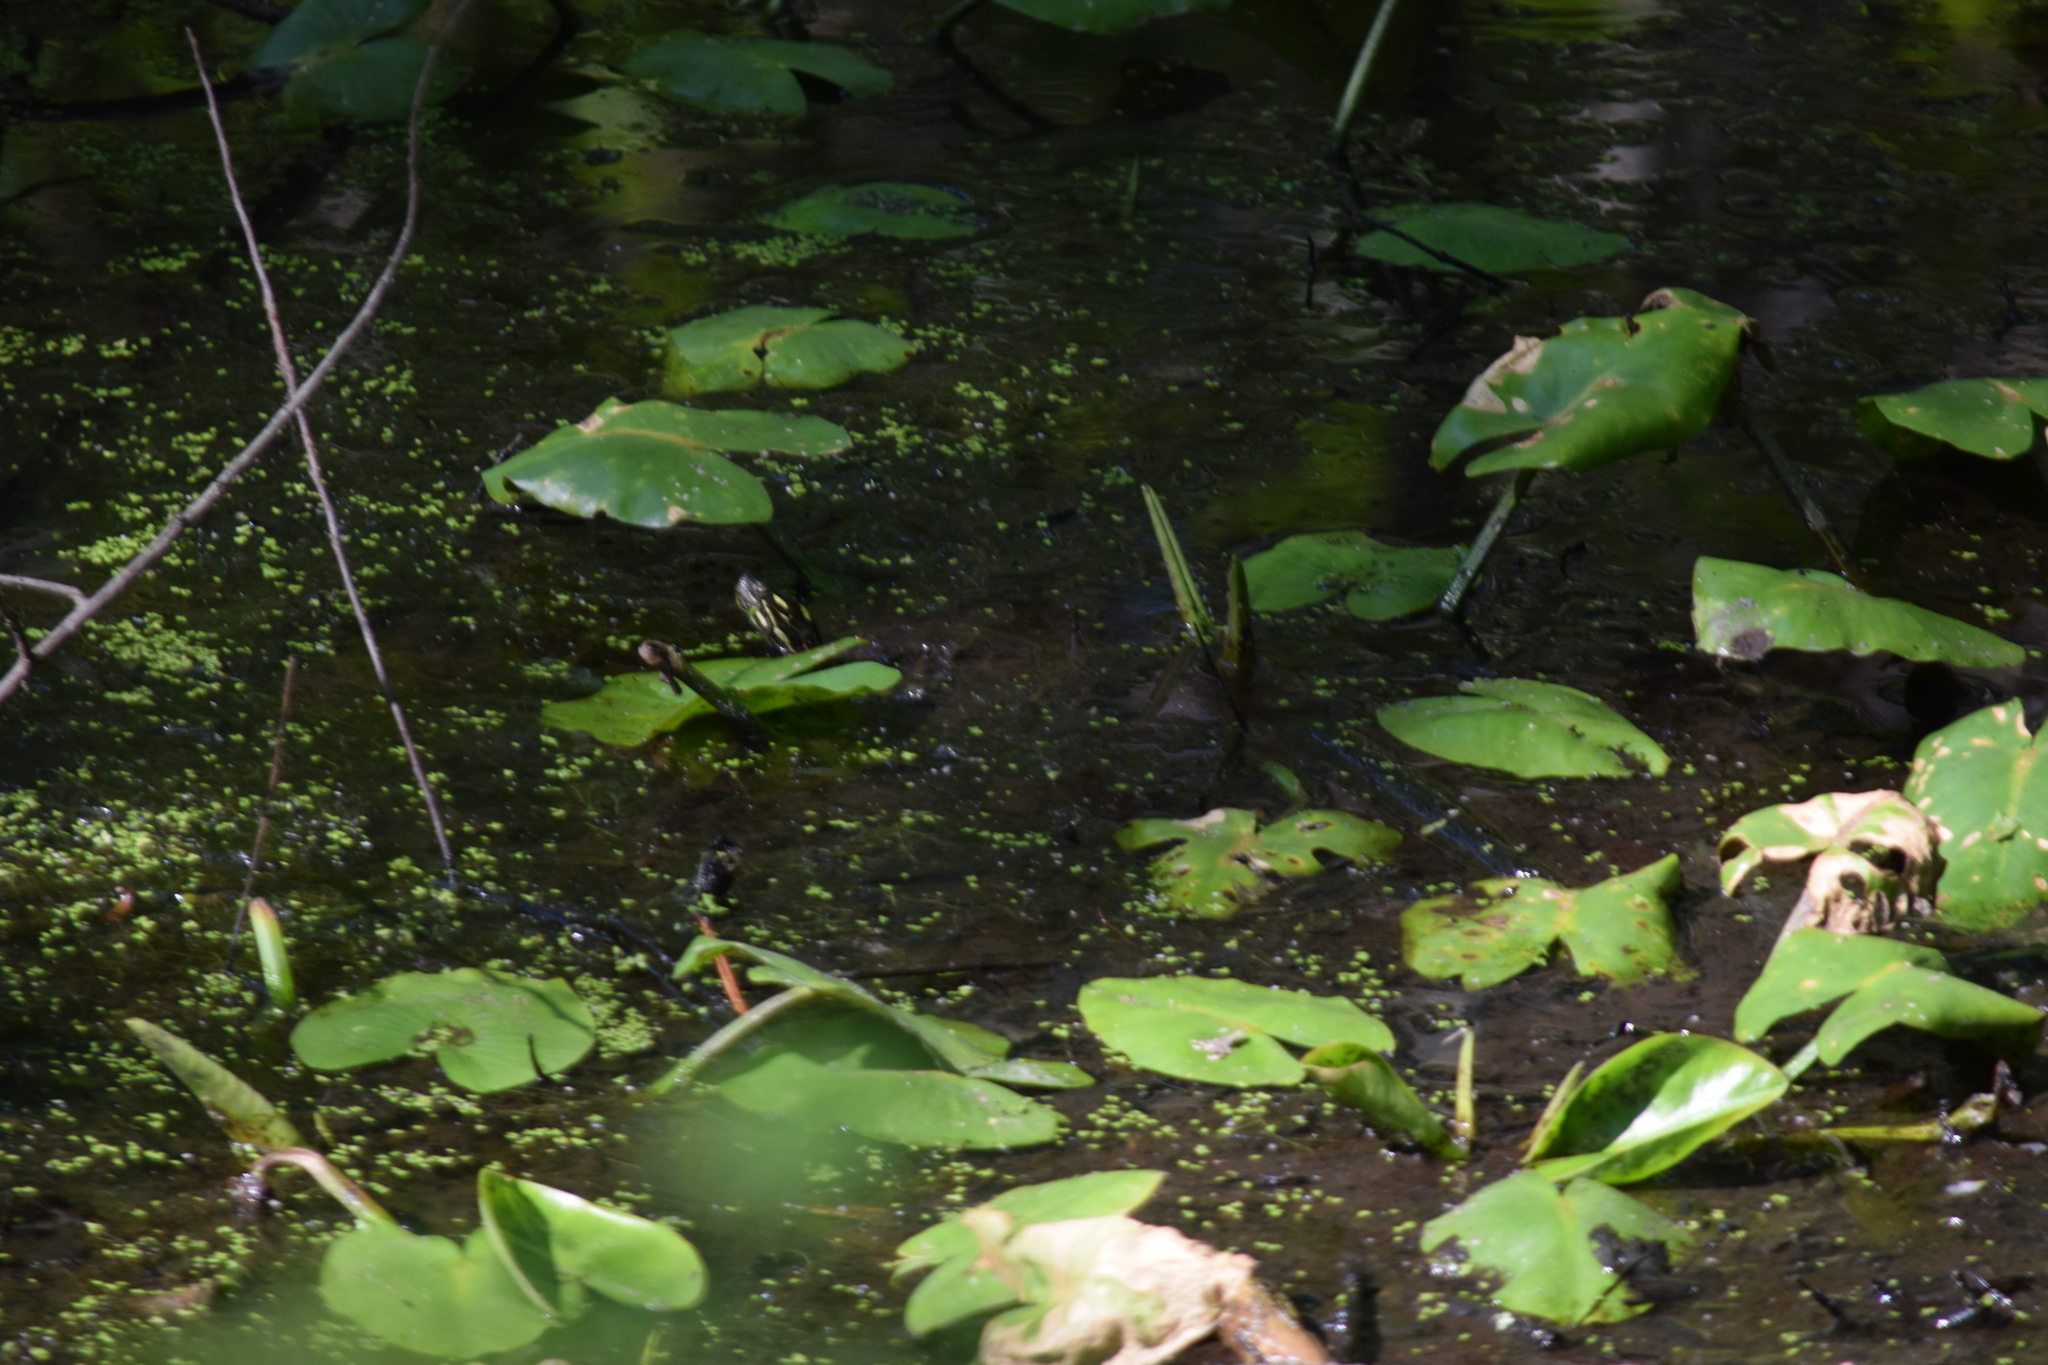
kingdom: Animalia
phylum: Chordata
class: Testudines
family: Emydidae
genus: Chrysemys
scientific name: Chrysemys picta
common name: Painted turtle
